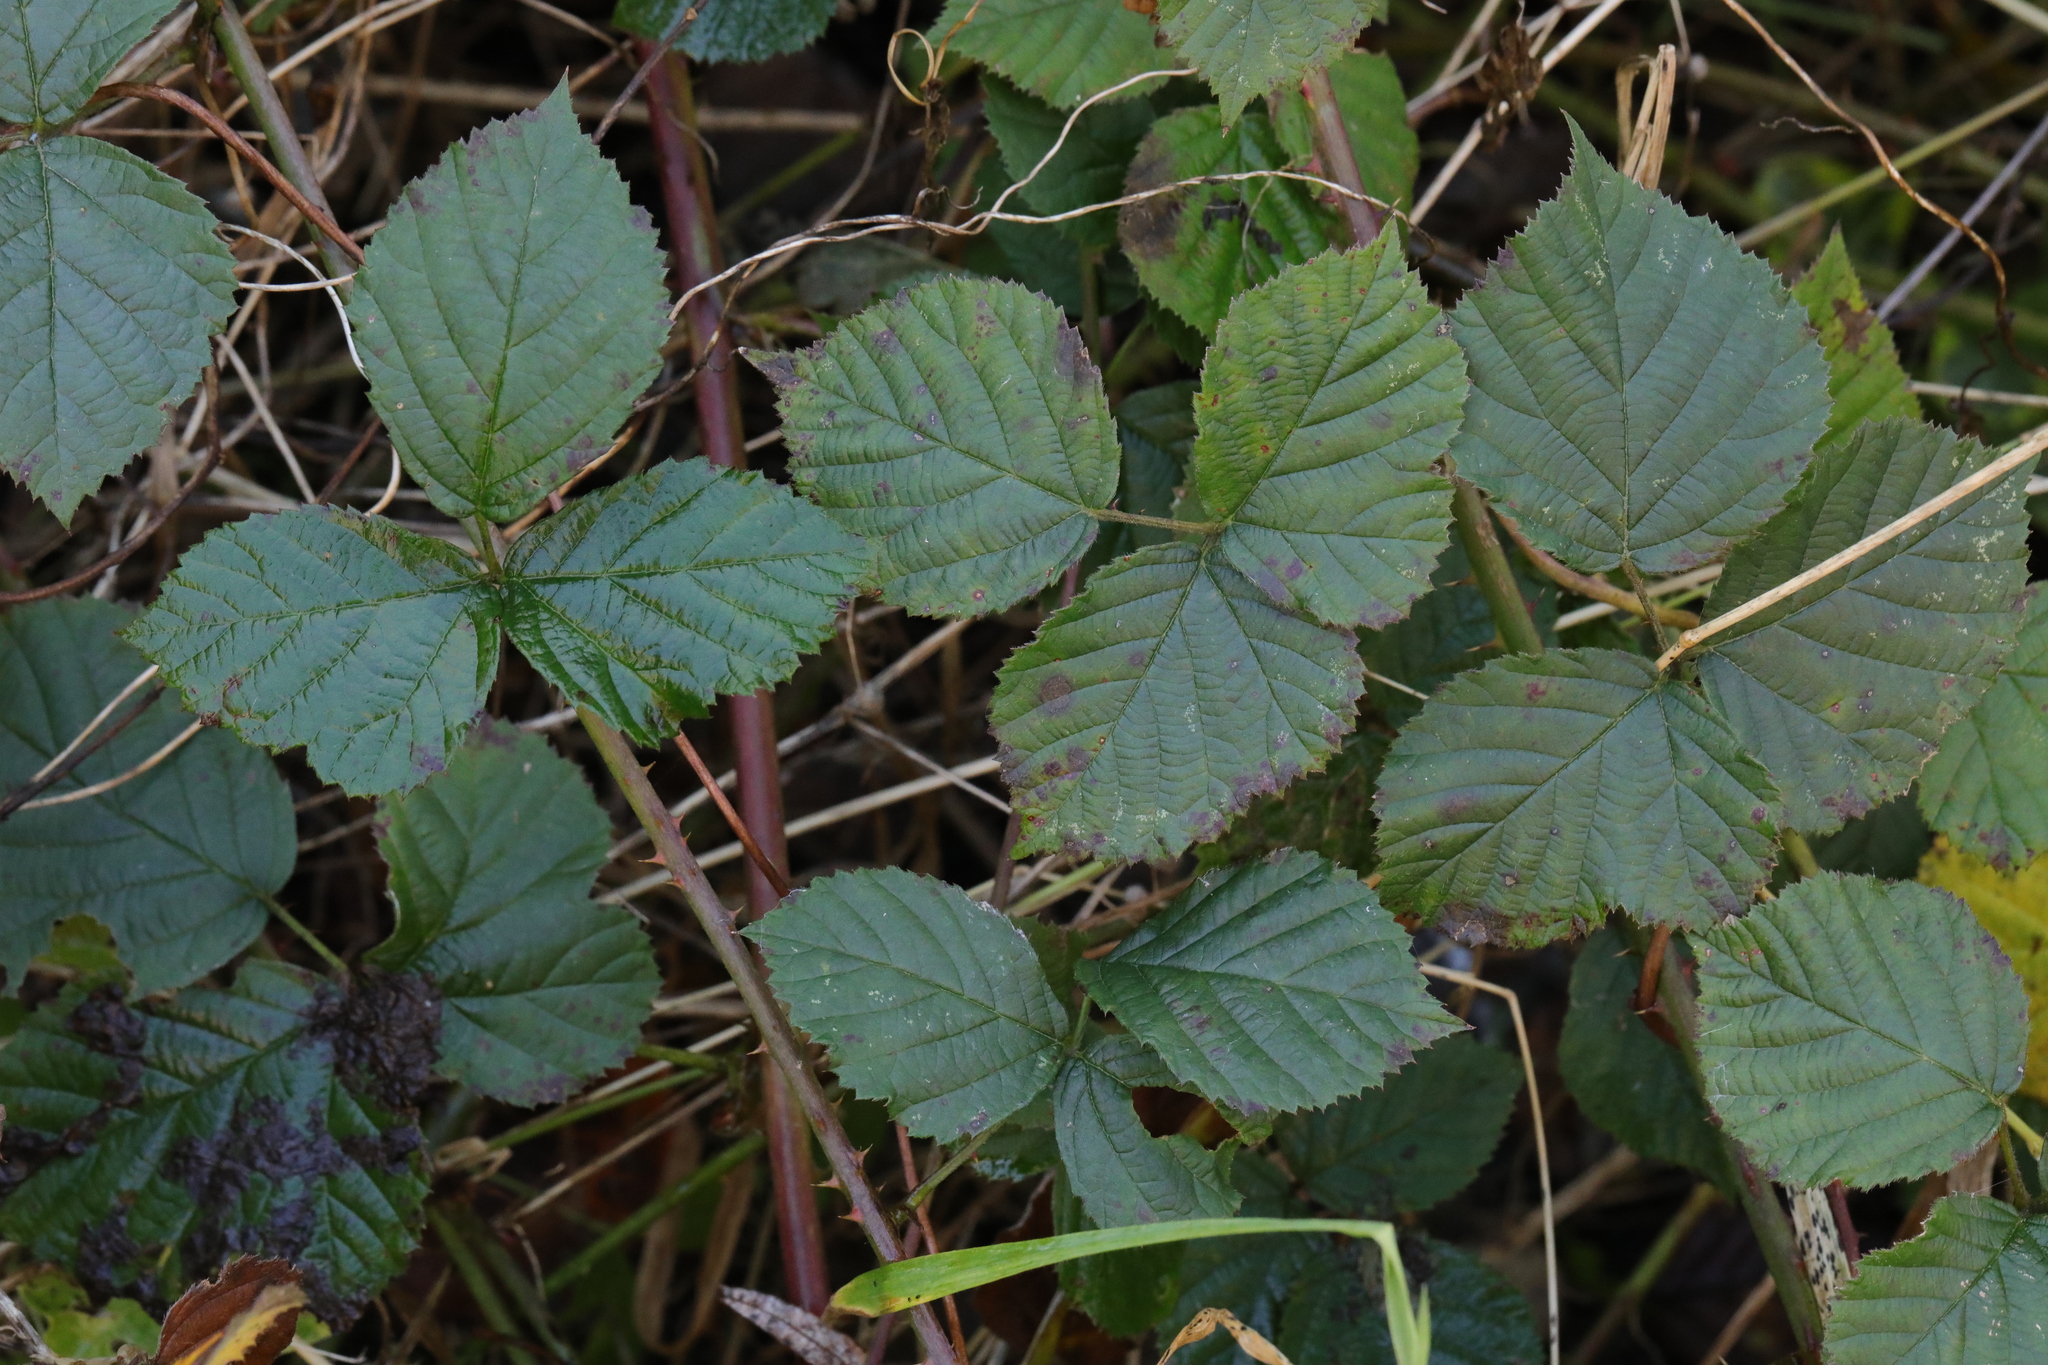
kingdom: Plantae
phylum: Tracheophyta
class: Magnoliopsida
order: Rosales
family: Rosaceae
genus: Rubus
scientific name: Rubus warrenii
